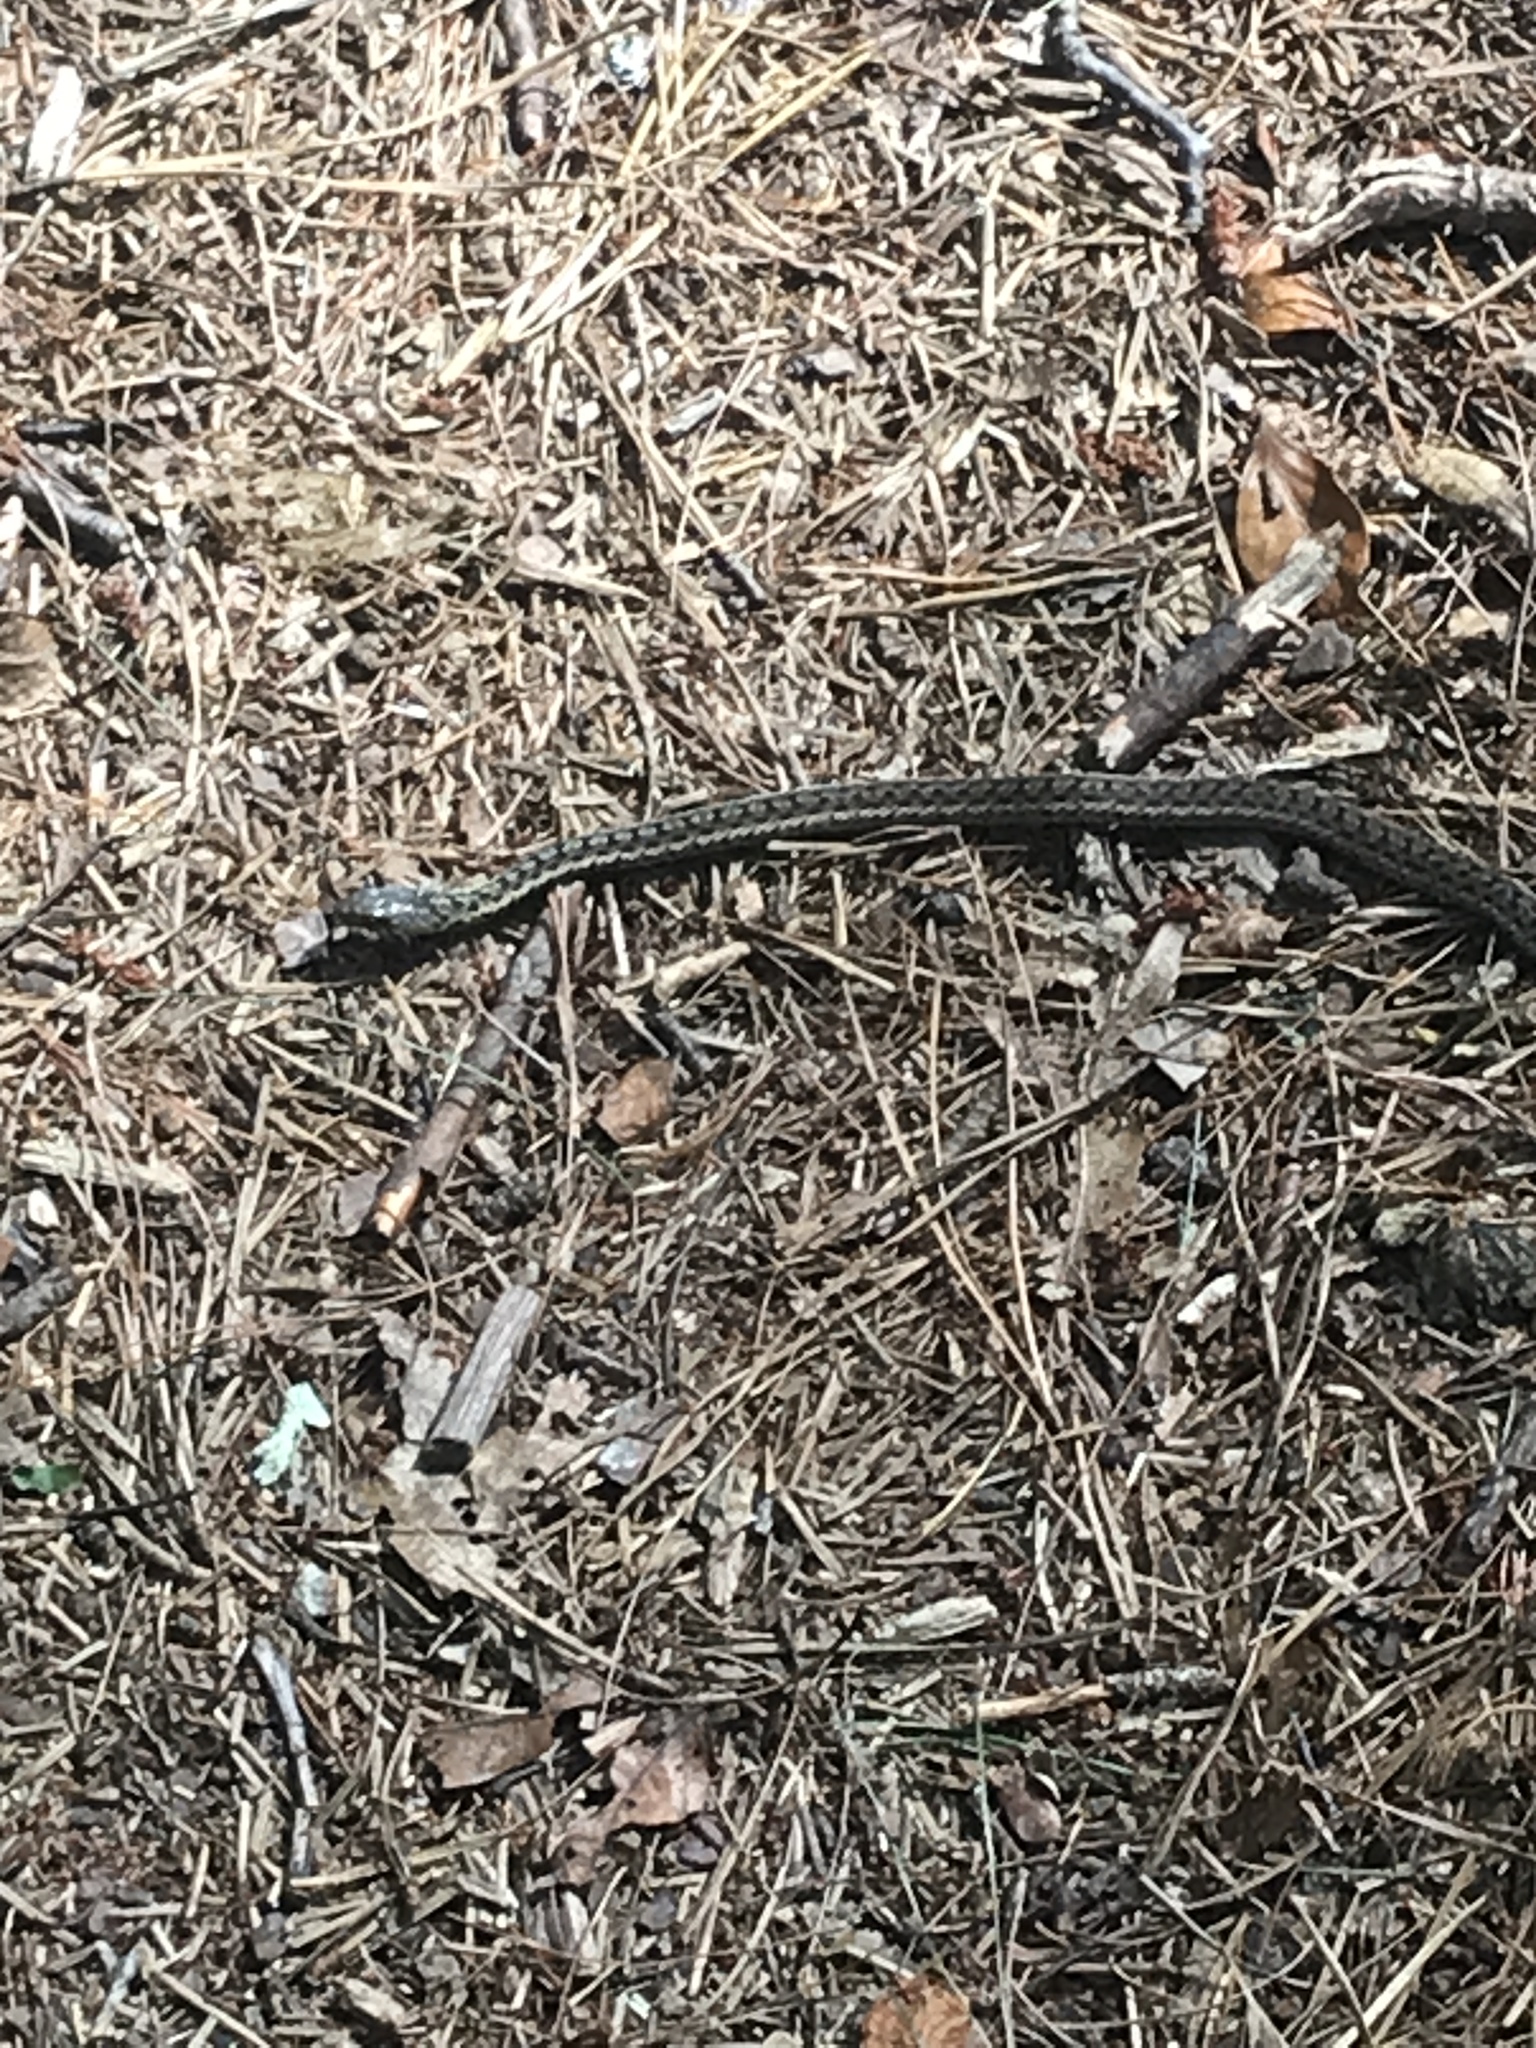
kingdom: Animalia
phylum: Chordata
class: Squamata
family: Colubridae
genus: Thamnophis
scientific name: Thamnophis sirtalis
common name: Common garter snake
